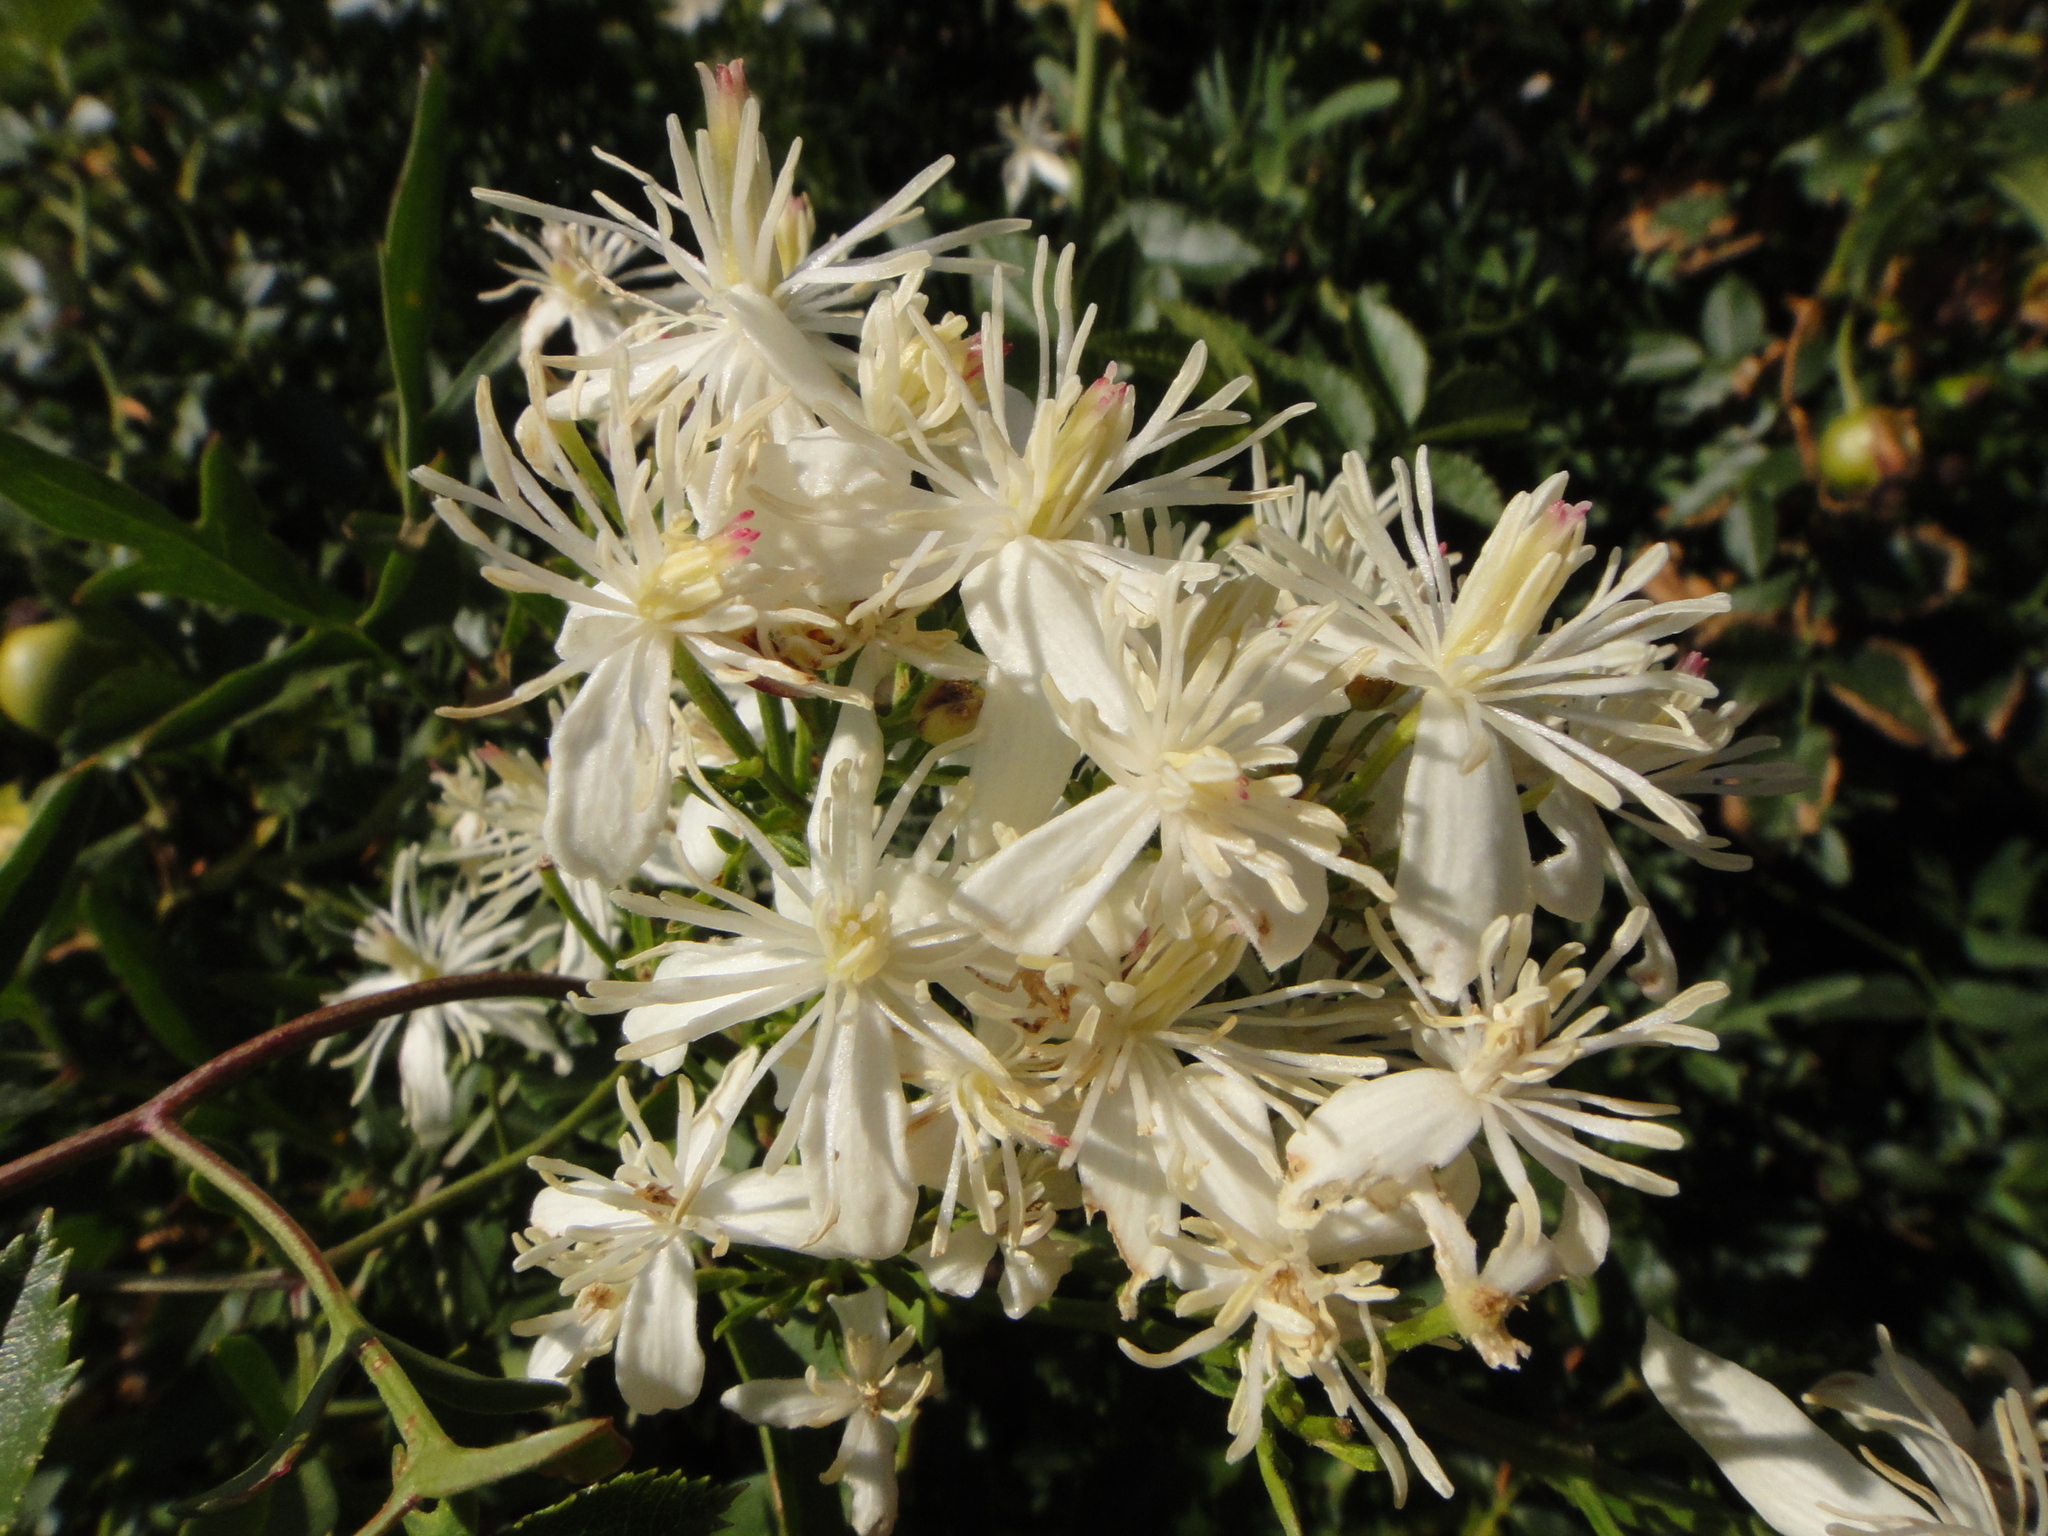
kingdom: Plantae
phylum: Tracheophyta
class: Magnoliopsida
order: Ranunculales
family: Ranunculaceae
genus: Clematis
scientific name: Clematis flammula
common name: Virgin's-bower
